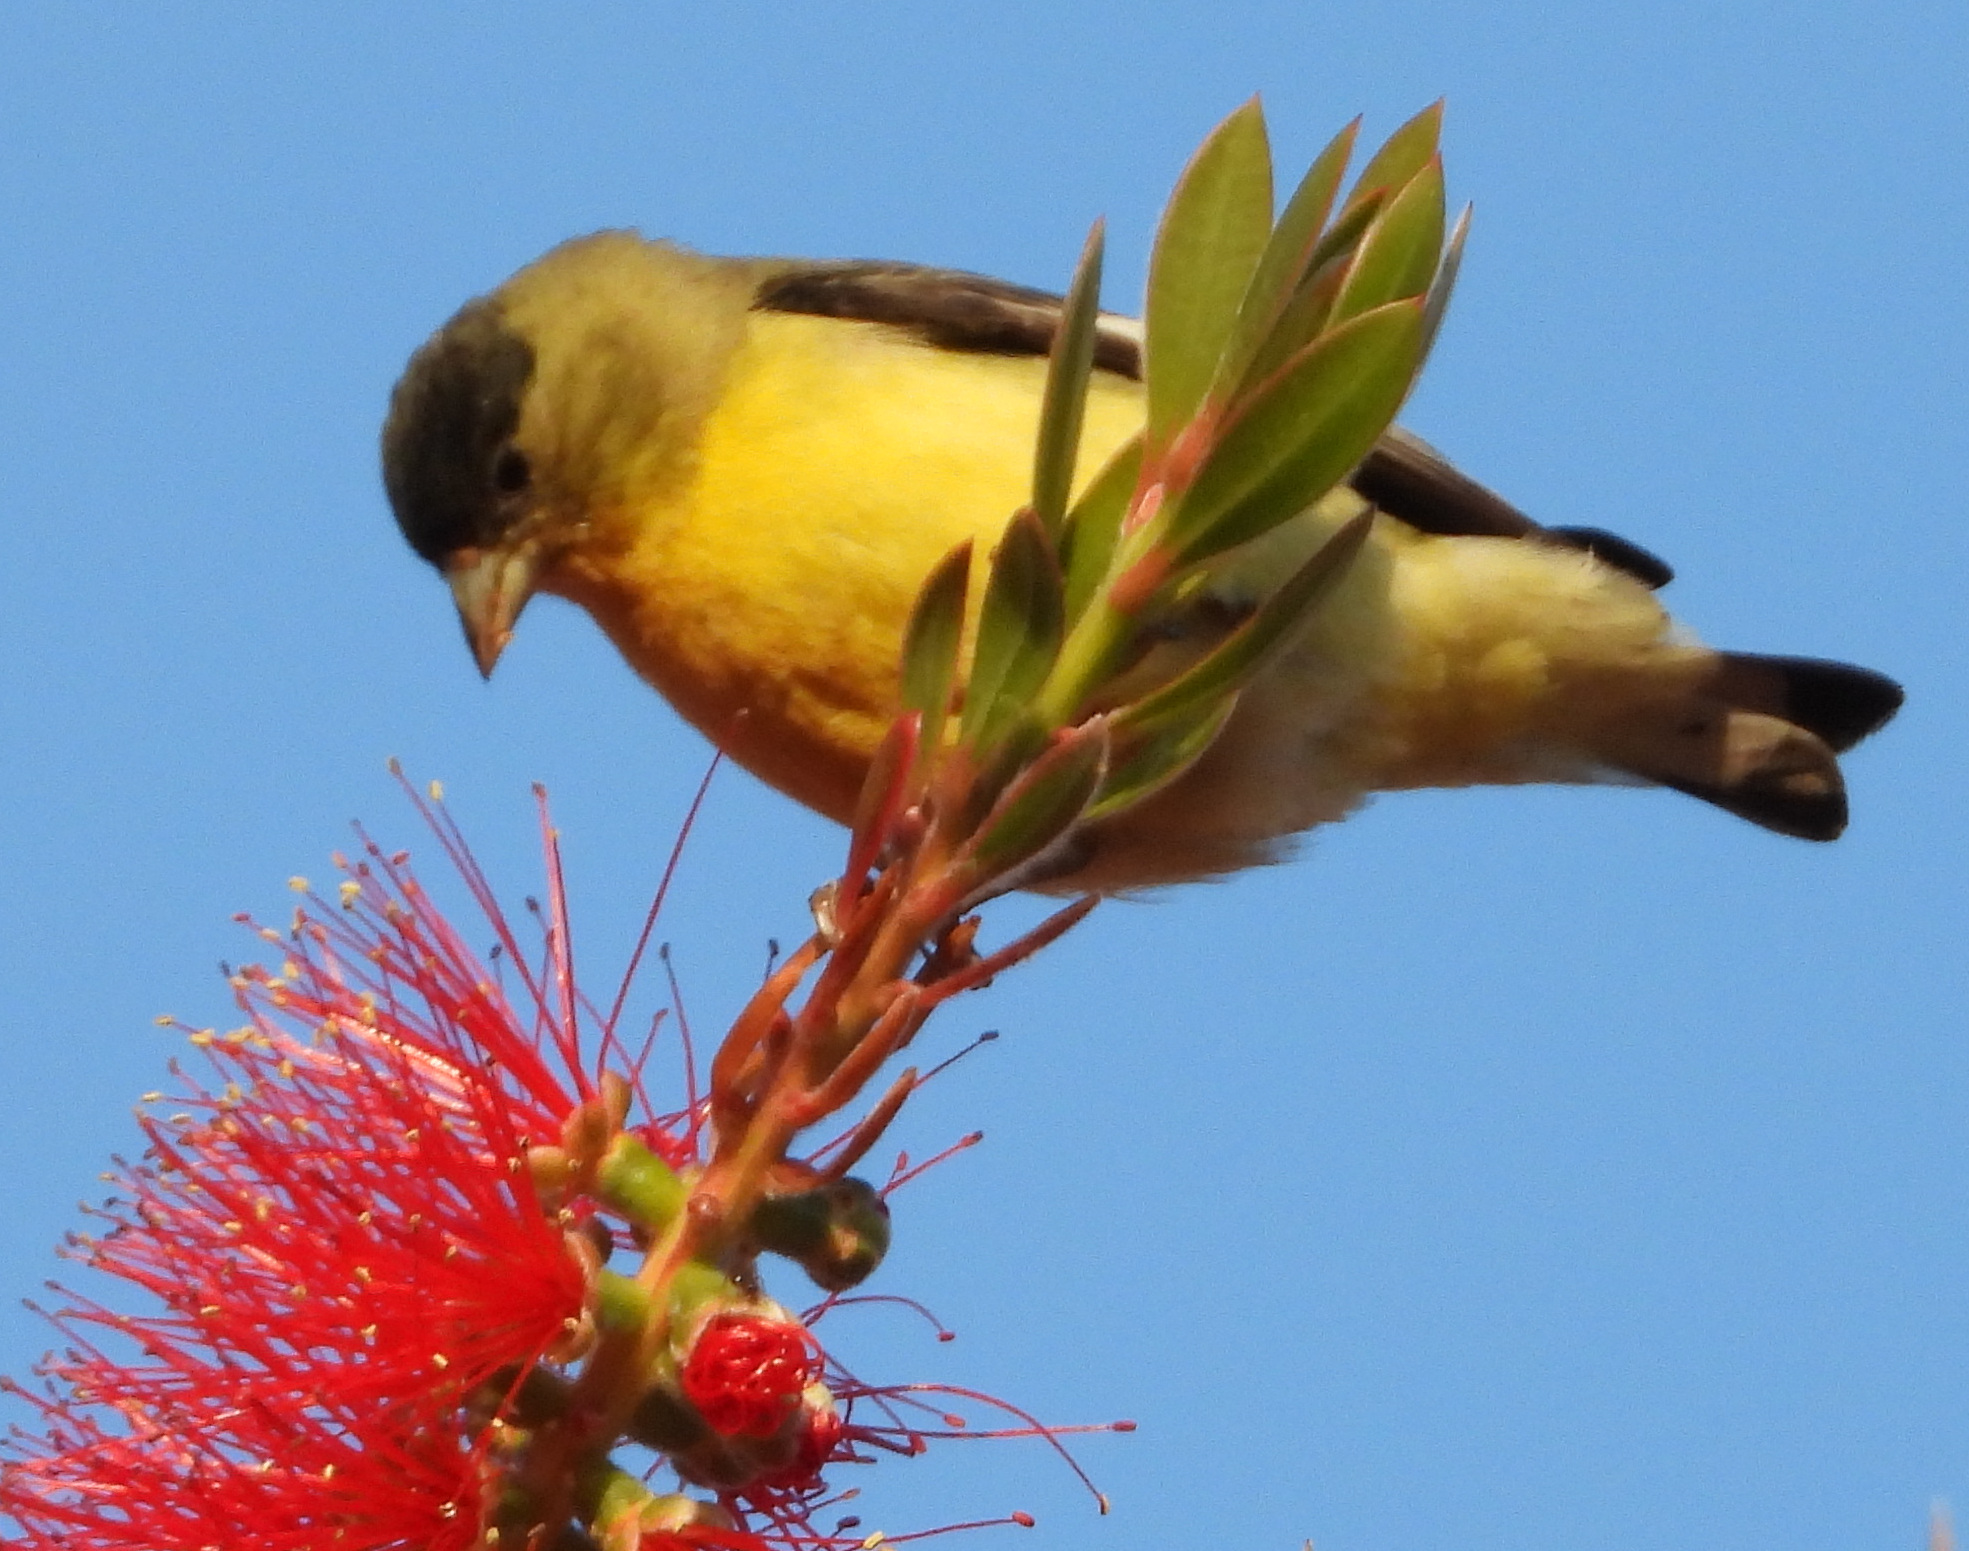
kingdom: Animalia
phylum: Chordata
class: Aves
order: Passeriformes
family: Fringillidae
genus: Spinus
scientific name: Spinus psaltria
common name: Lesser goldfinch
